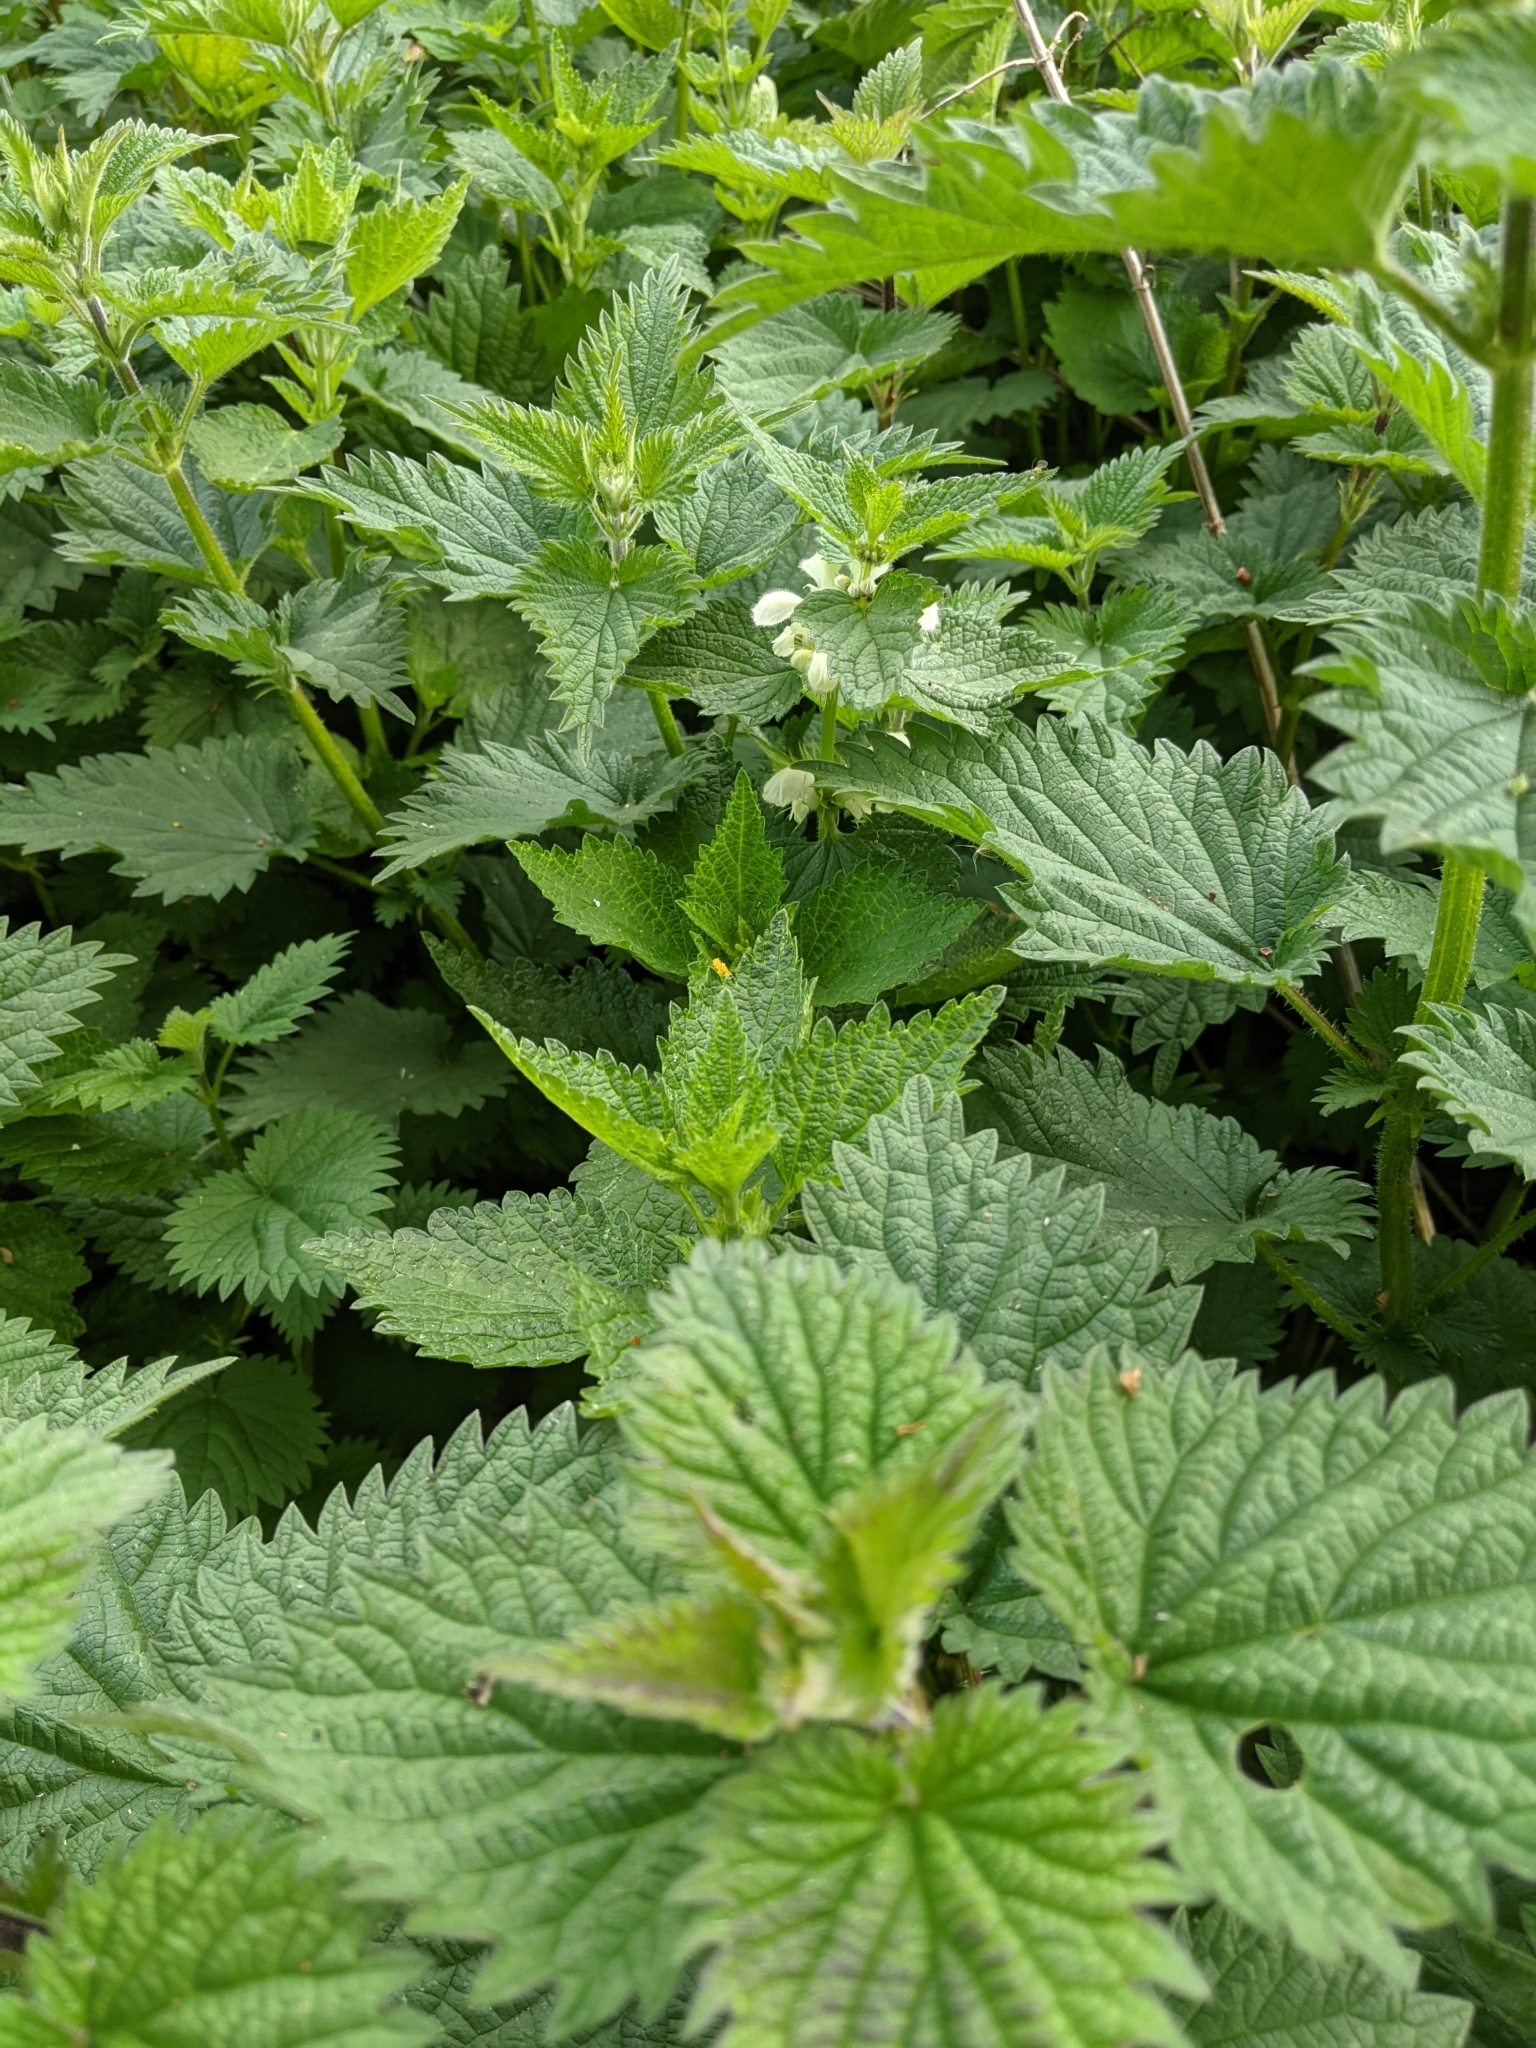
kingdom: Plantae
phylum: Tracheophyta
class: Magnoliopsida
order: Lamiales
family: Lamiaceae
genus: Lamium
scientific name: Lamium album
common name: White dead-nettle
